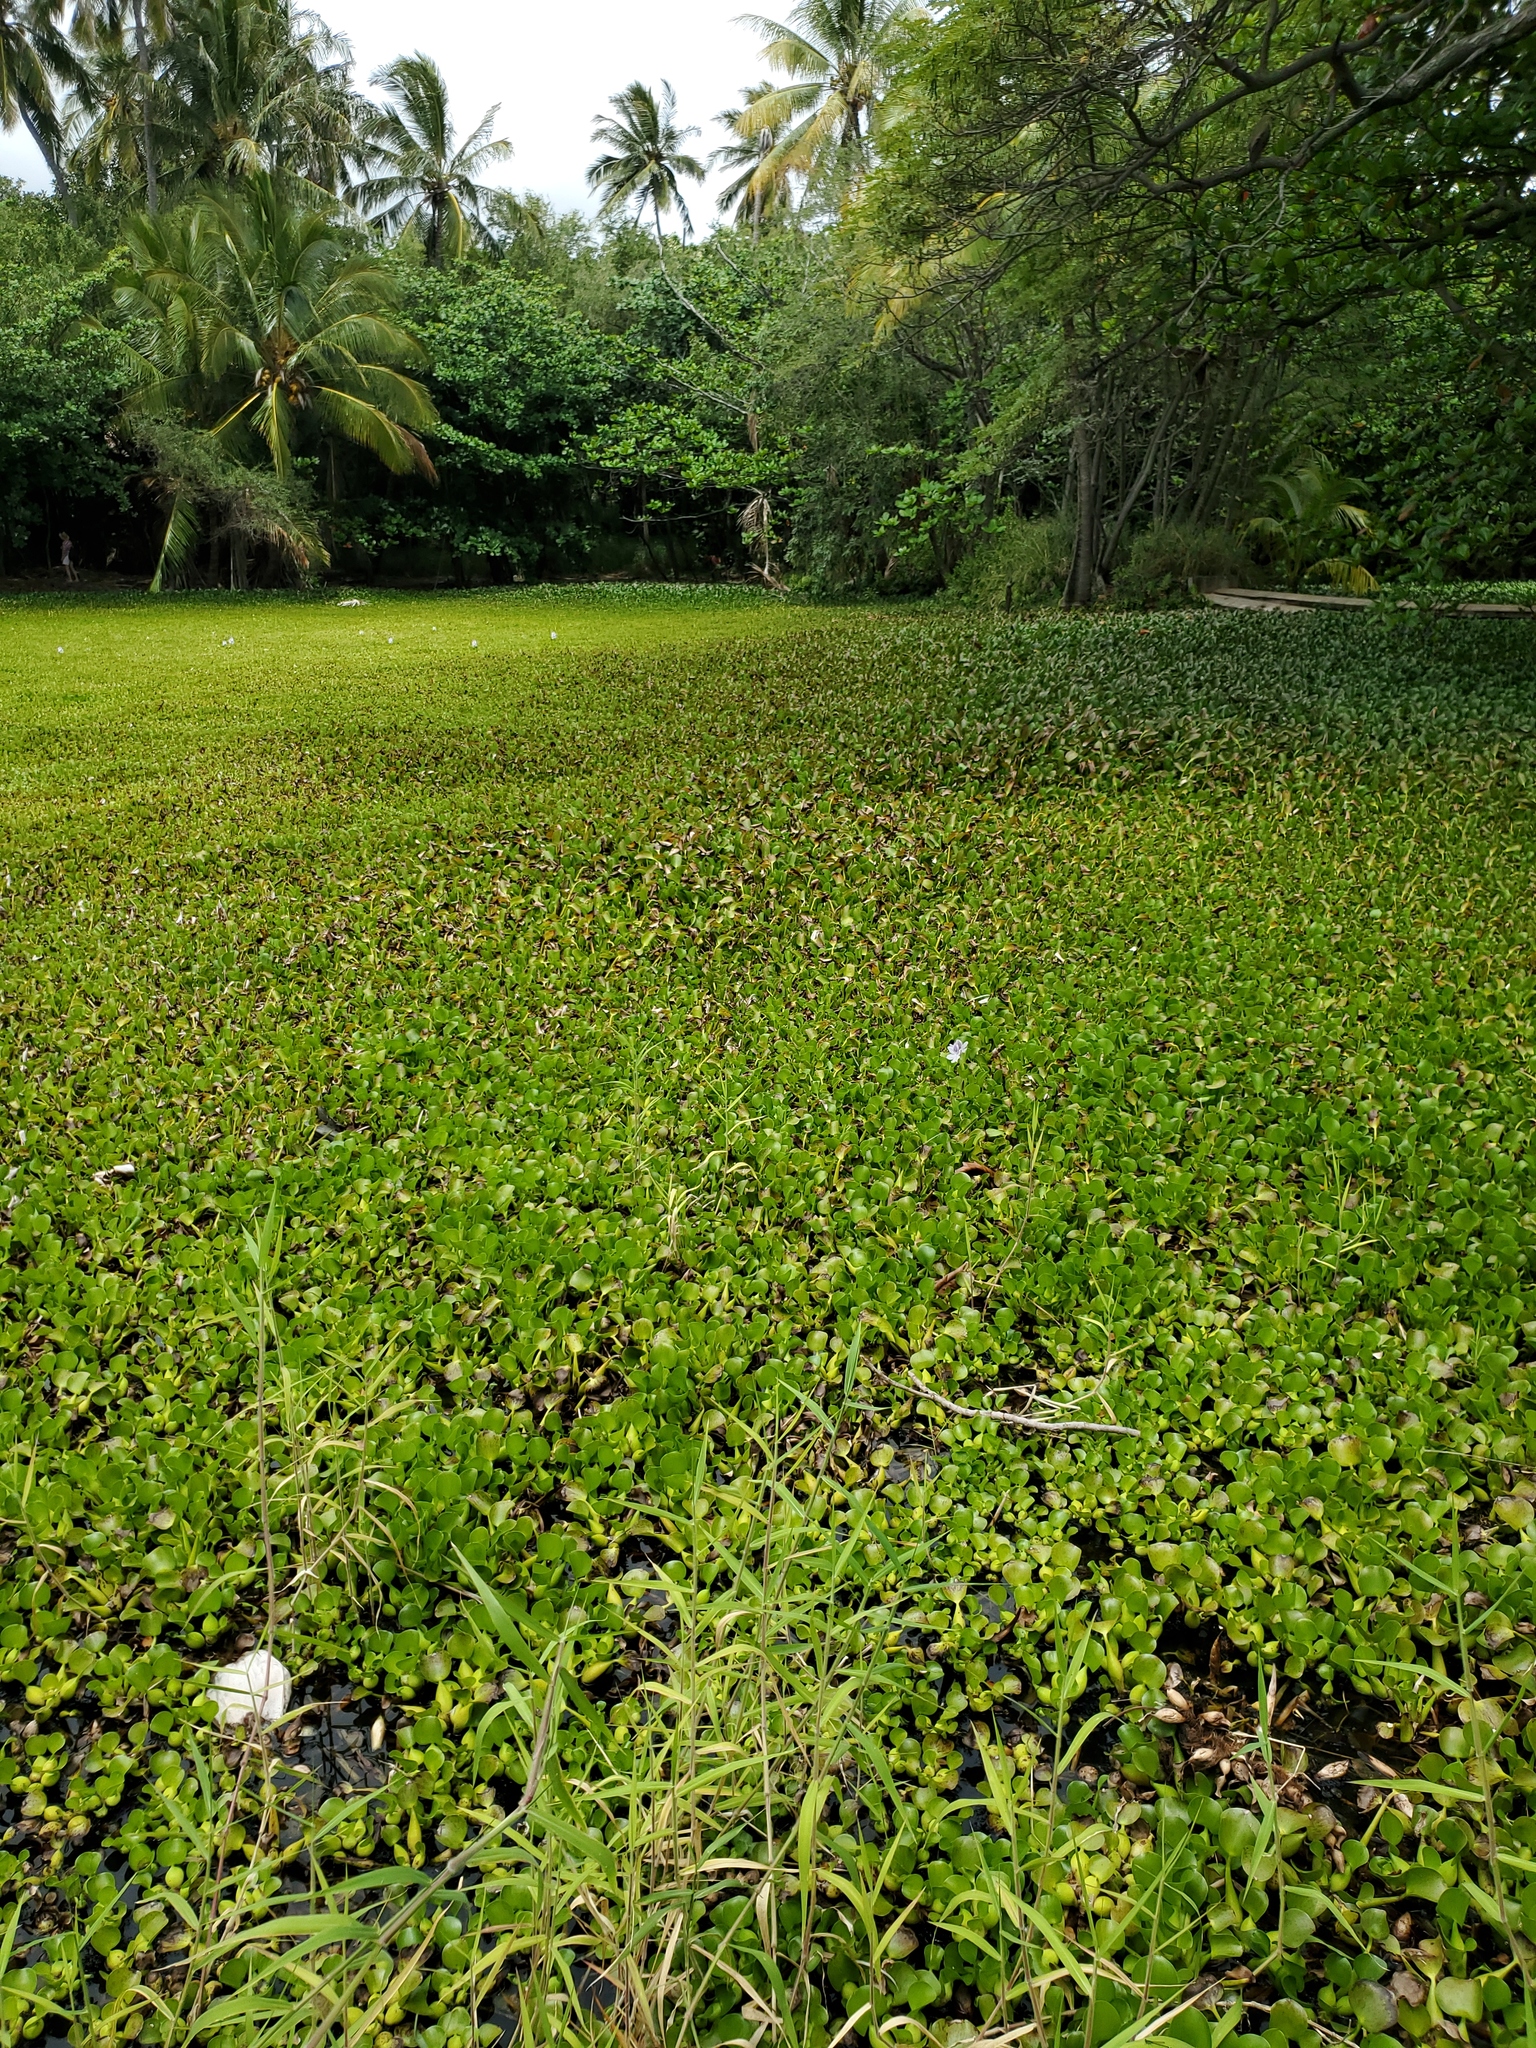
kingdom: Plantae
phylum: Tracheophyta
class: Liliopsida
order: Commelinales
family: Pontederiaceae
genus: Pontederia
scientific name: Pontederia crassipes
